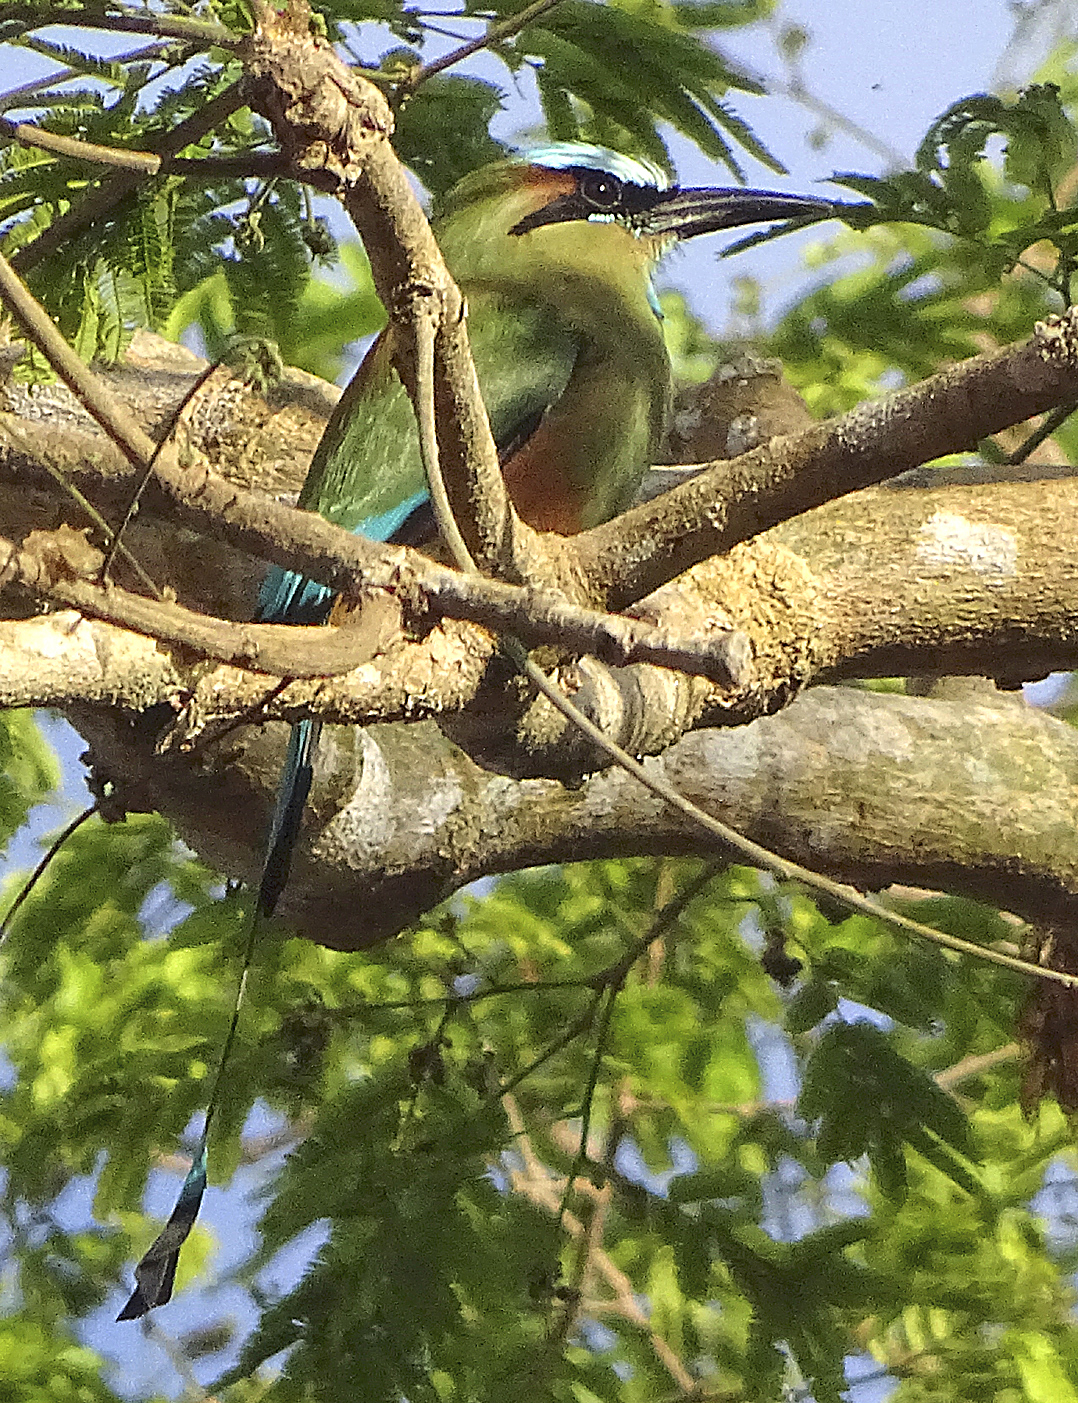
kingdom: Animalia
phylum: Chordata
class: Aves
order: Coraciiformes
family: Momotidae
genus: Eumomota
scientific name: Eumomota superciliosa
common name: Turquoise-browed motmot
